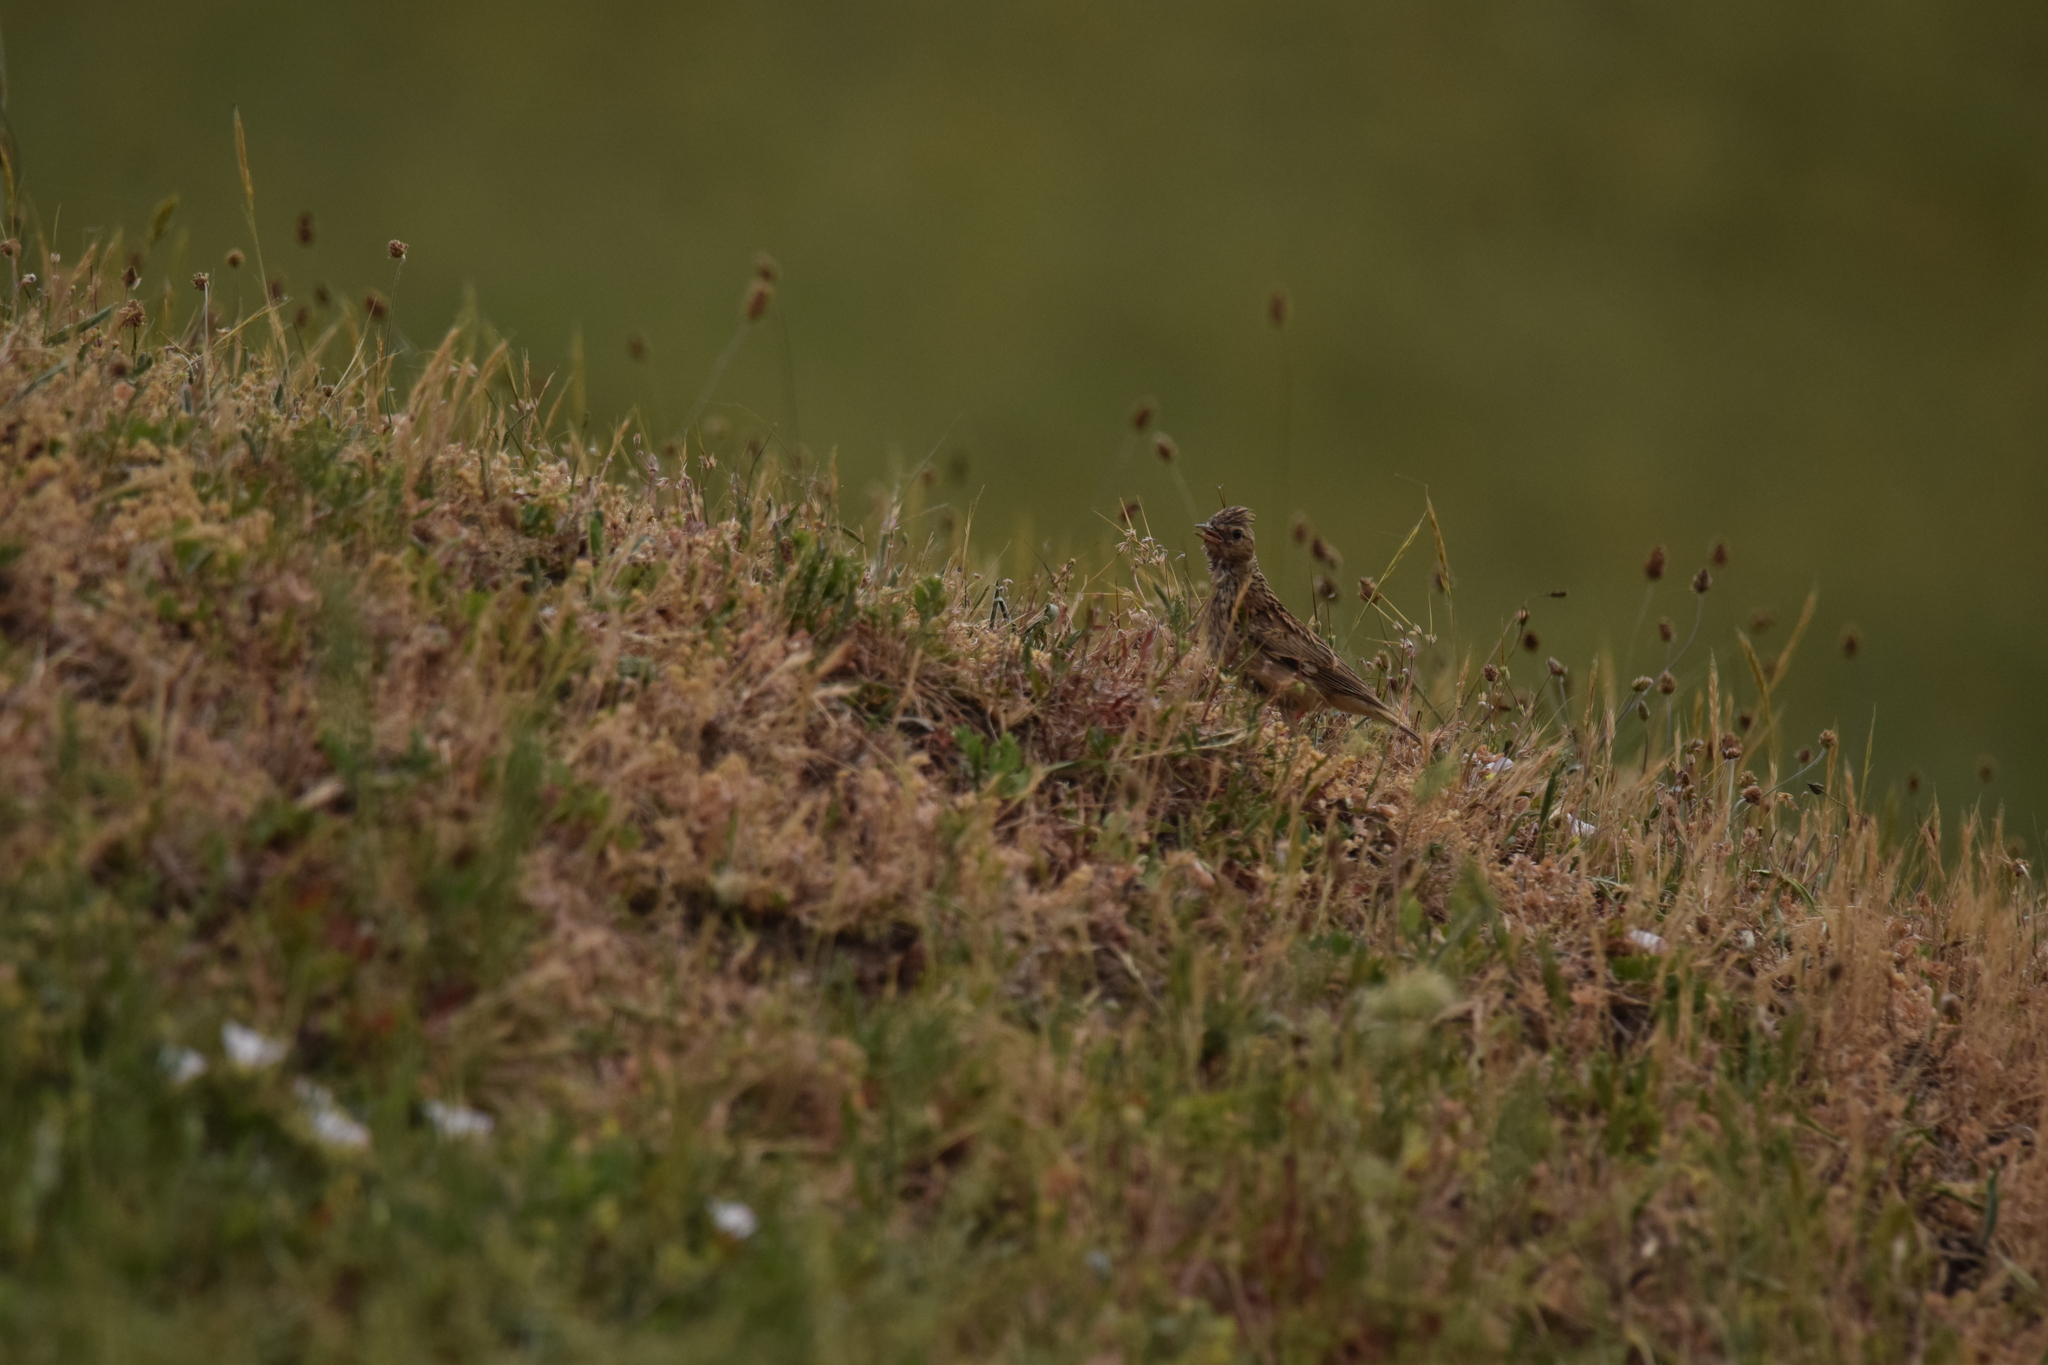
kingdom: Animalia
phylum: Chordata
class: Aves
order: Passeriformes
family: Alaudidae
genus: Lullula
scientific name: Lullula arborea
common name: Woodlark
